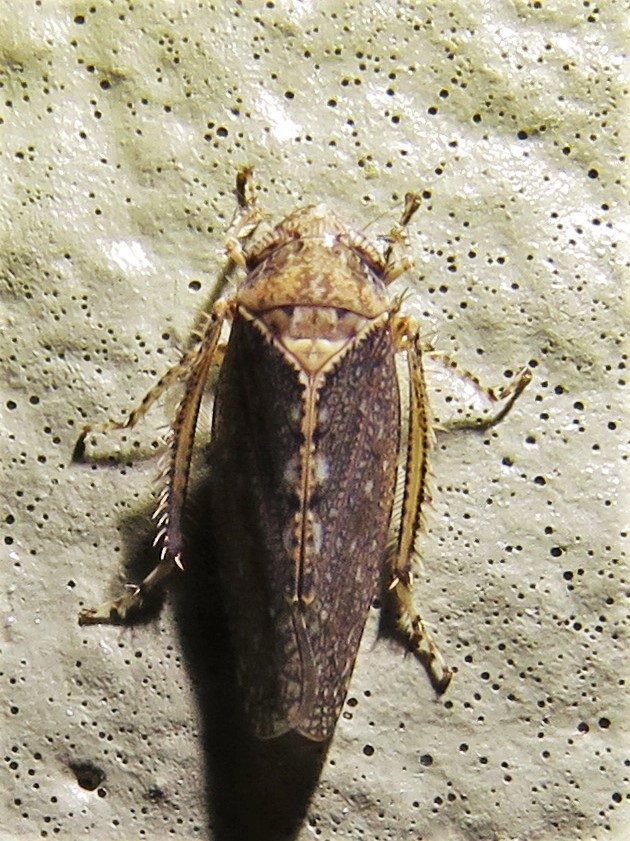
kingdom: Animalia
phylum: Arthropoda
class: Insecta
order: Hemiptera
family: Cicadellidae
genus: Excultanus
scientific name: Excultanus excultus
